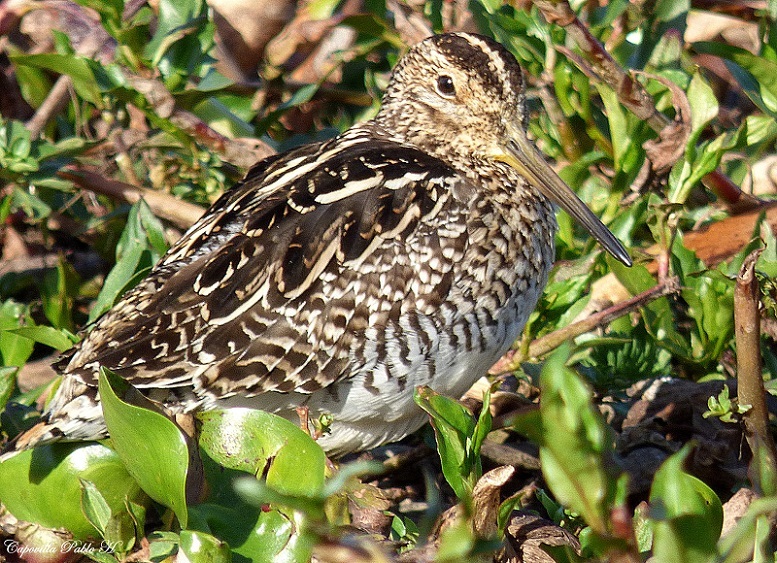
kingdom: Animalia
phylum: Chordata
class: Aves
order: Charadriiformes
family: Scolopacidae
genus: Gallinago
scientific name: Gallinago paraguaiae
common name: South american snipe
